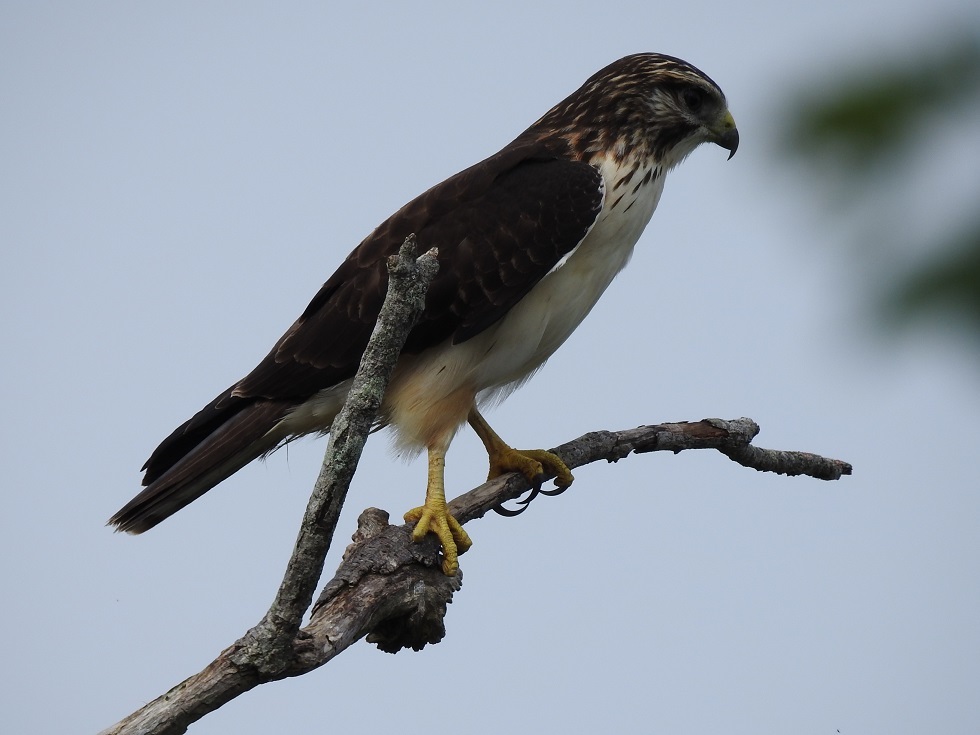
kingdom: Animalia
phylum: Chordata
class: Aves
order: Accipitriformes
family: Accipitridae
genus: Buteo
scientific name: Buteo brachyurus
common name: Short-tailed hawk
